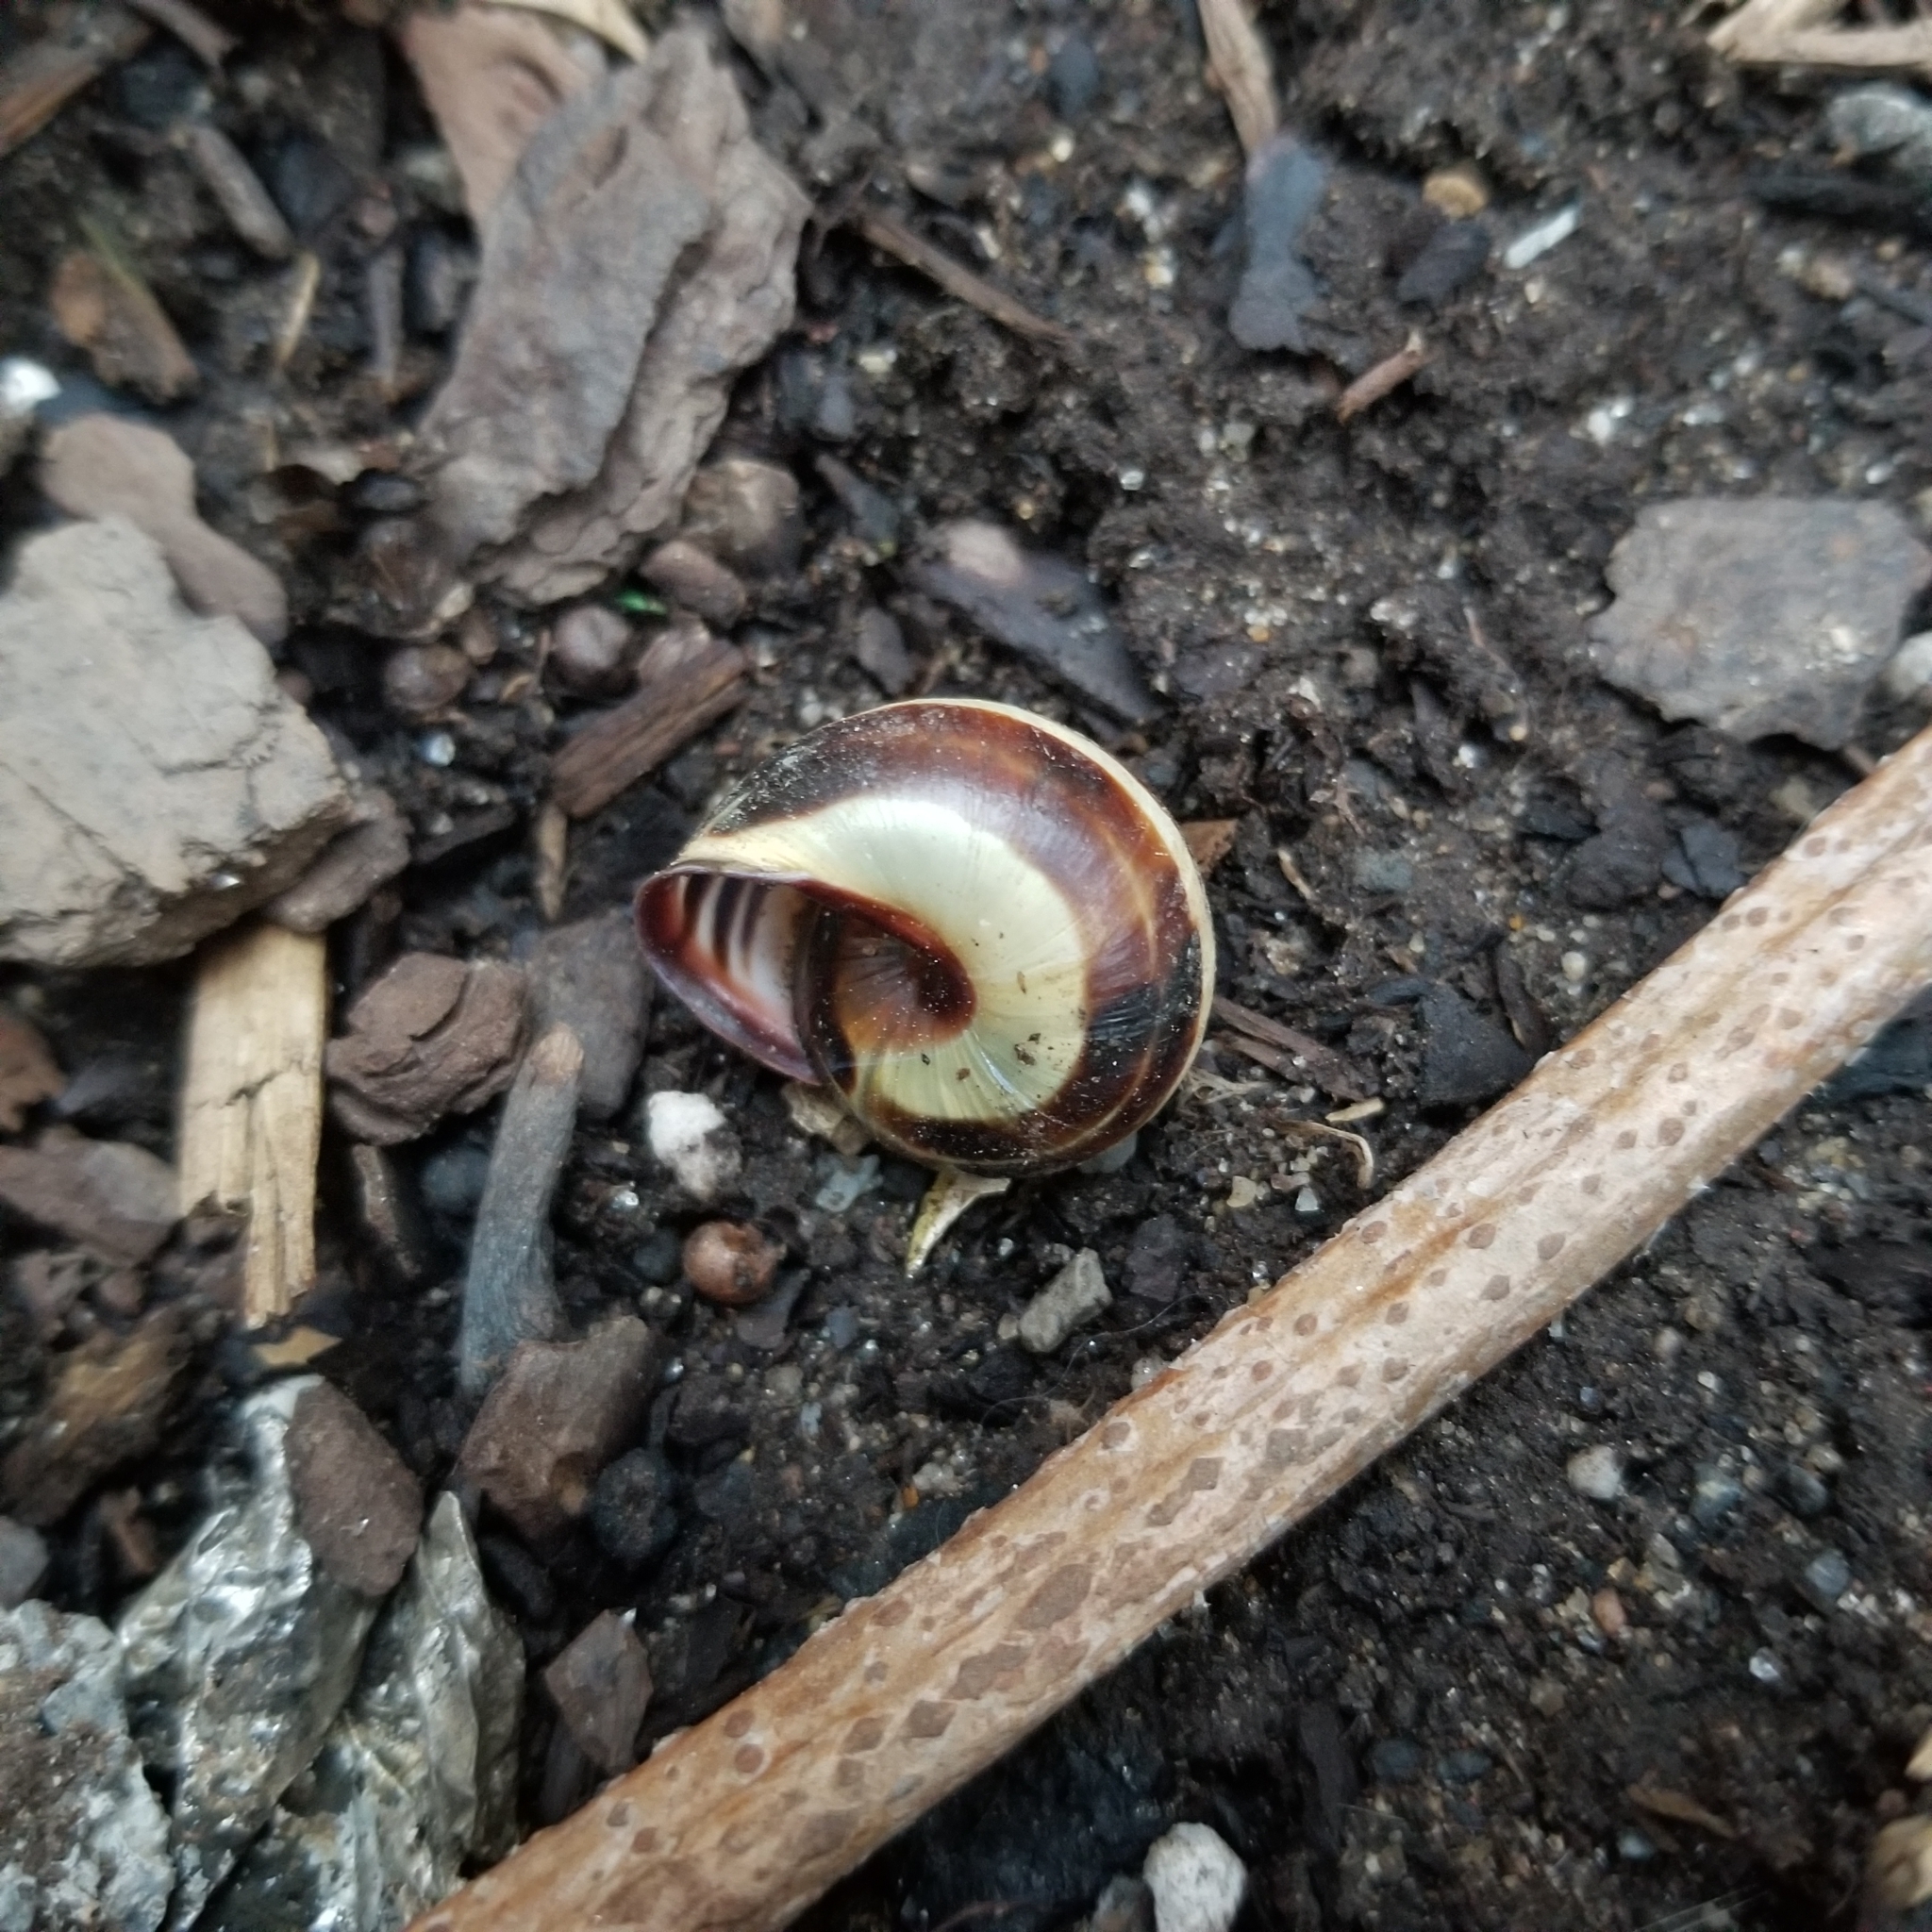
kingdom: Animalia
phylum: Mollusca
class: Gastropoda
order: Stylommatophora
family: Helicidae
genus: Cepaea
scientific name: Cepaea nemoralis
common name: Grovesnail
